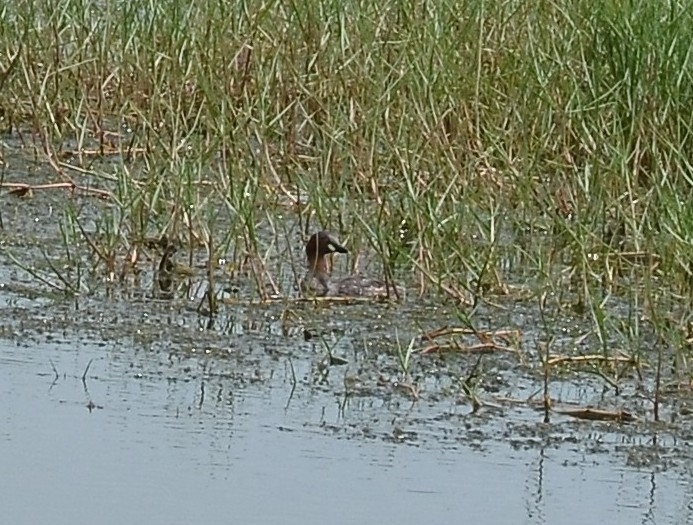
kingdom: Animalia
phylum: Chordata
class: Aves
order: Podicipediformes
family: Podicipedidae
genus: Tachybaptus
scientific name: Tachybaptus ruficollis
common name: Little grebe
